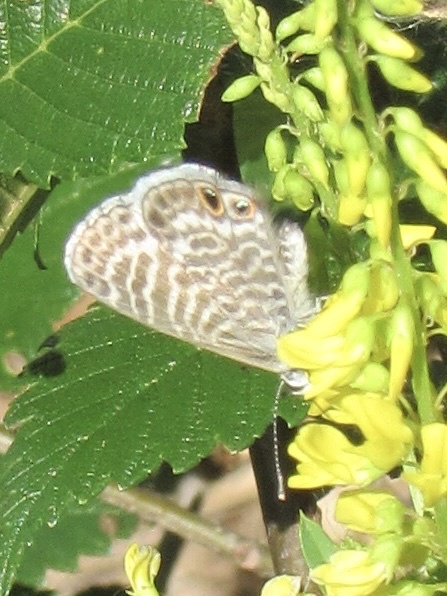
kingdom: Animalia
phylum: Arthropoda
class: Insecta
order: Lepidoptera
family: Lycaenidae
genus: Leptotes
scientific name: Leptotes marina
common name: Marine blue
